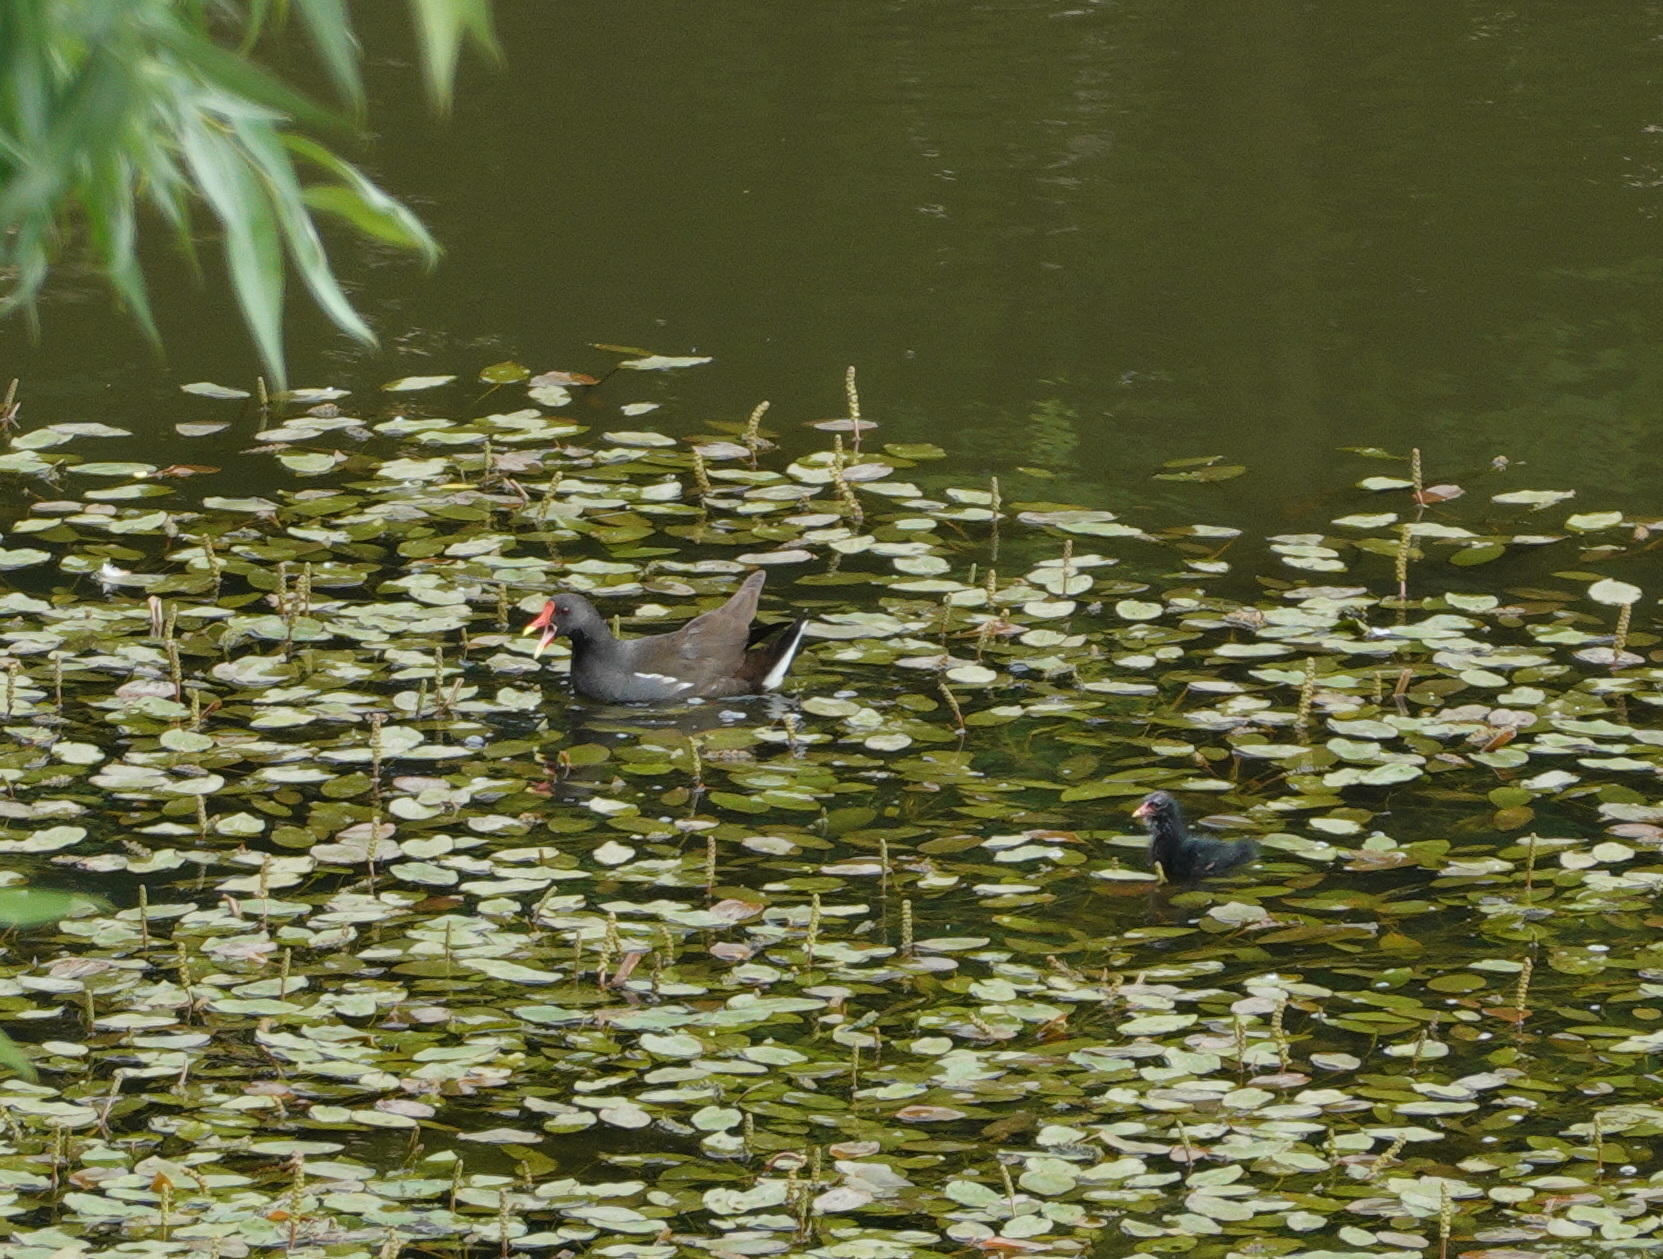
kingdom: Animalia
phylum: Chordata
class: Aves
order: Gruiformes
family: Rallidae
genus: Gallinula
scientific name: Gallinula chloropus
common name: Common moorhen
